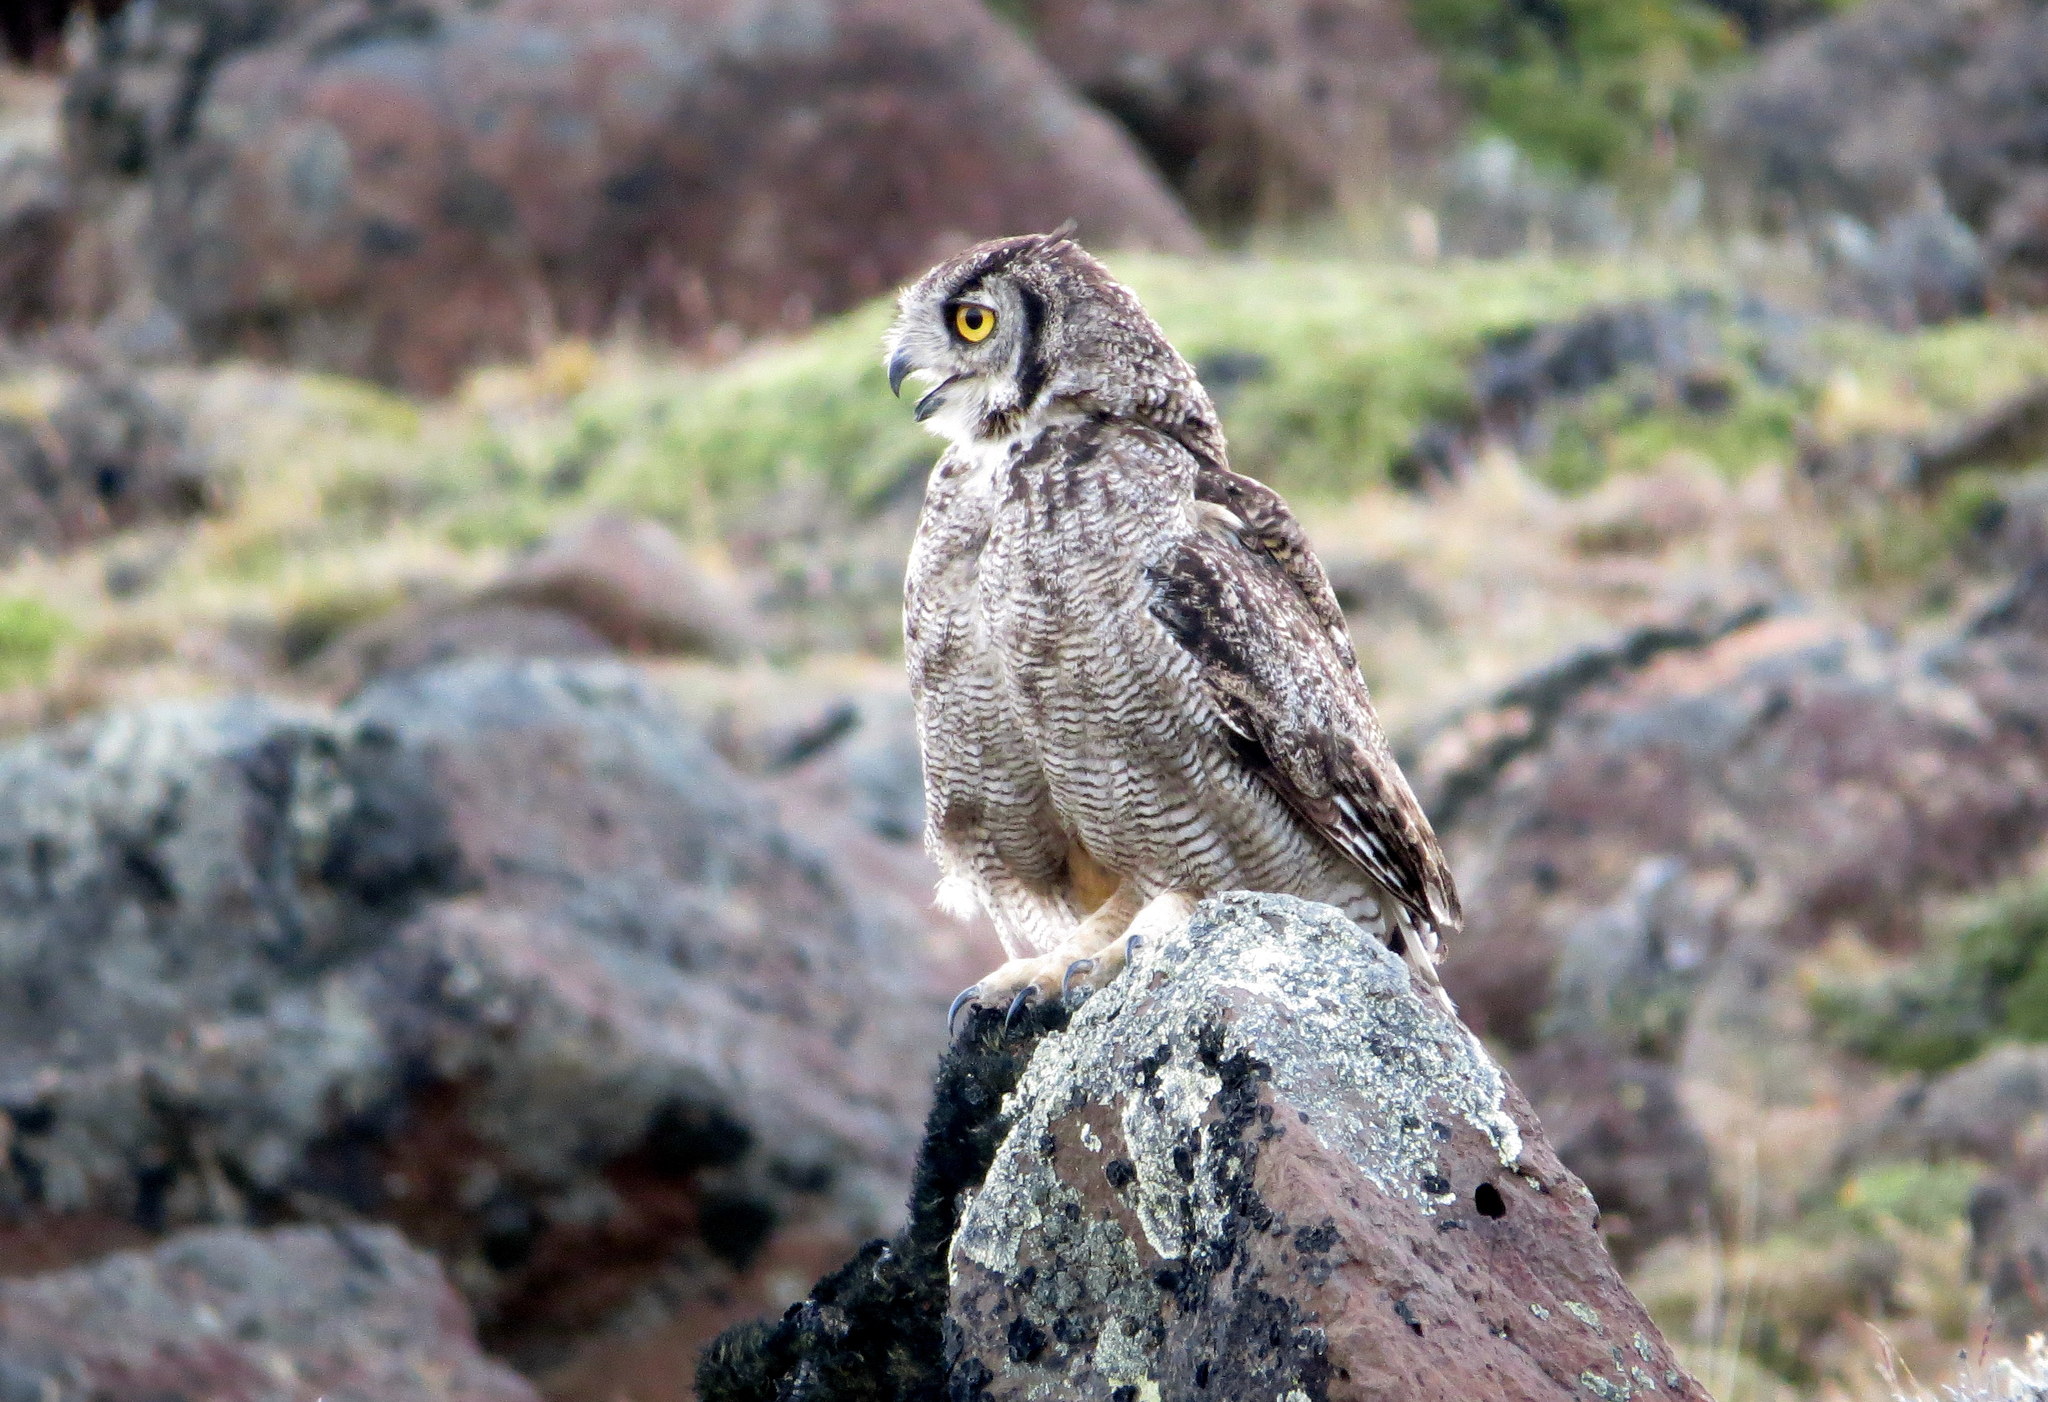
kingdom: Animalia
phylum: Chordata
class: Aves
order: Strigiformes
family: Strigidae
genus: Bubo
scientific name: Bubo magellanicus
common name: Lesser horned owl
